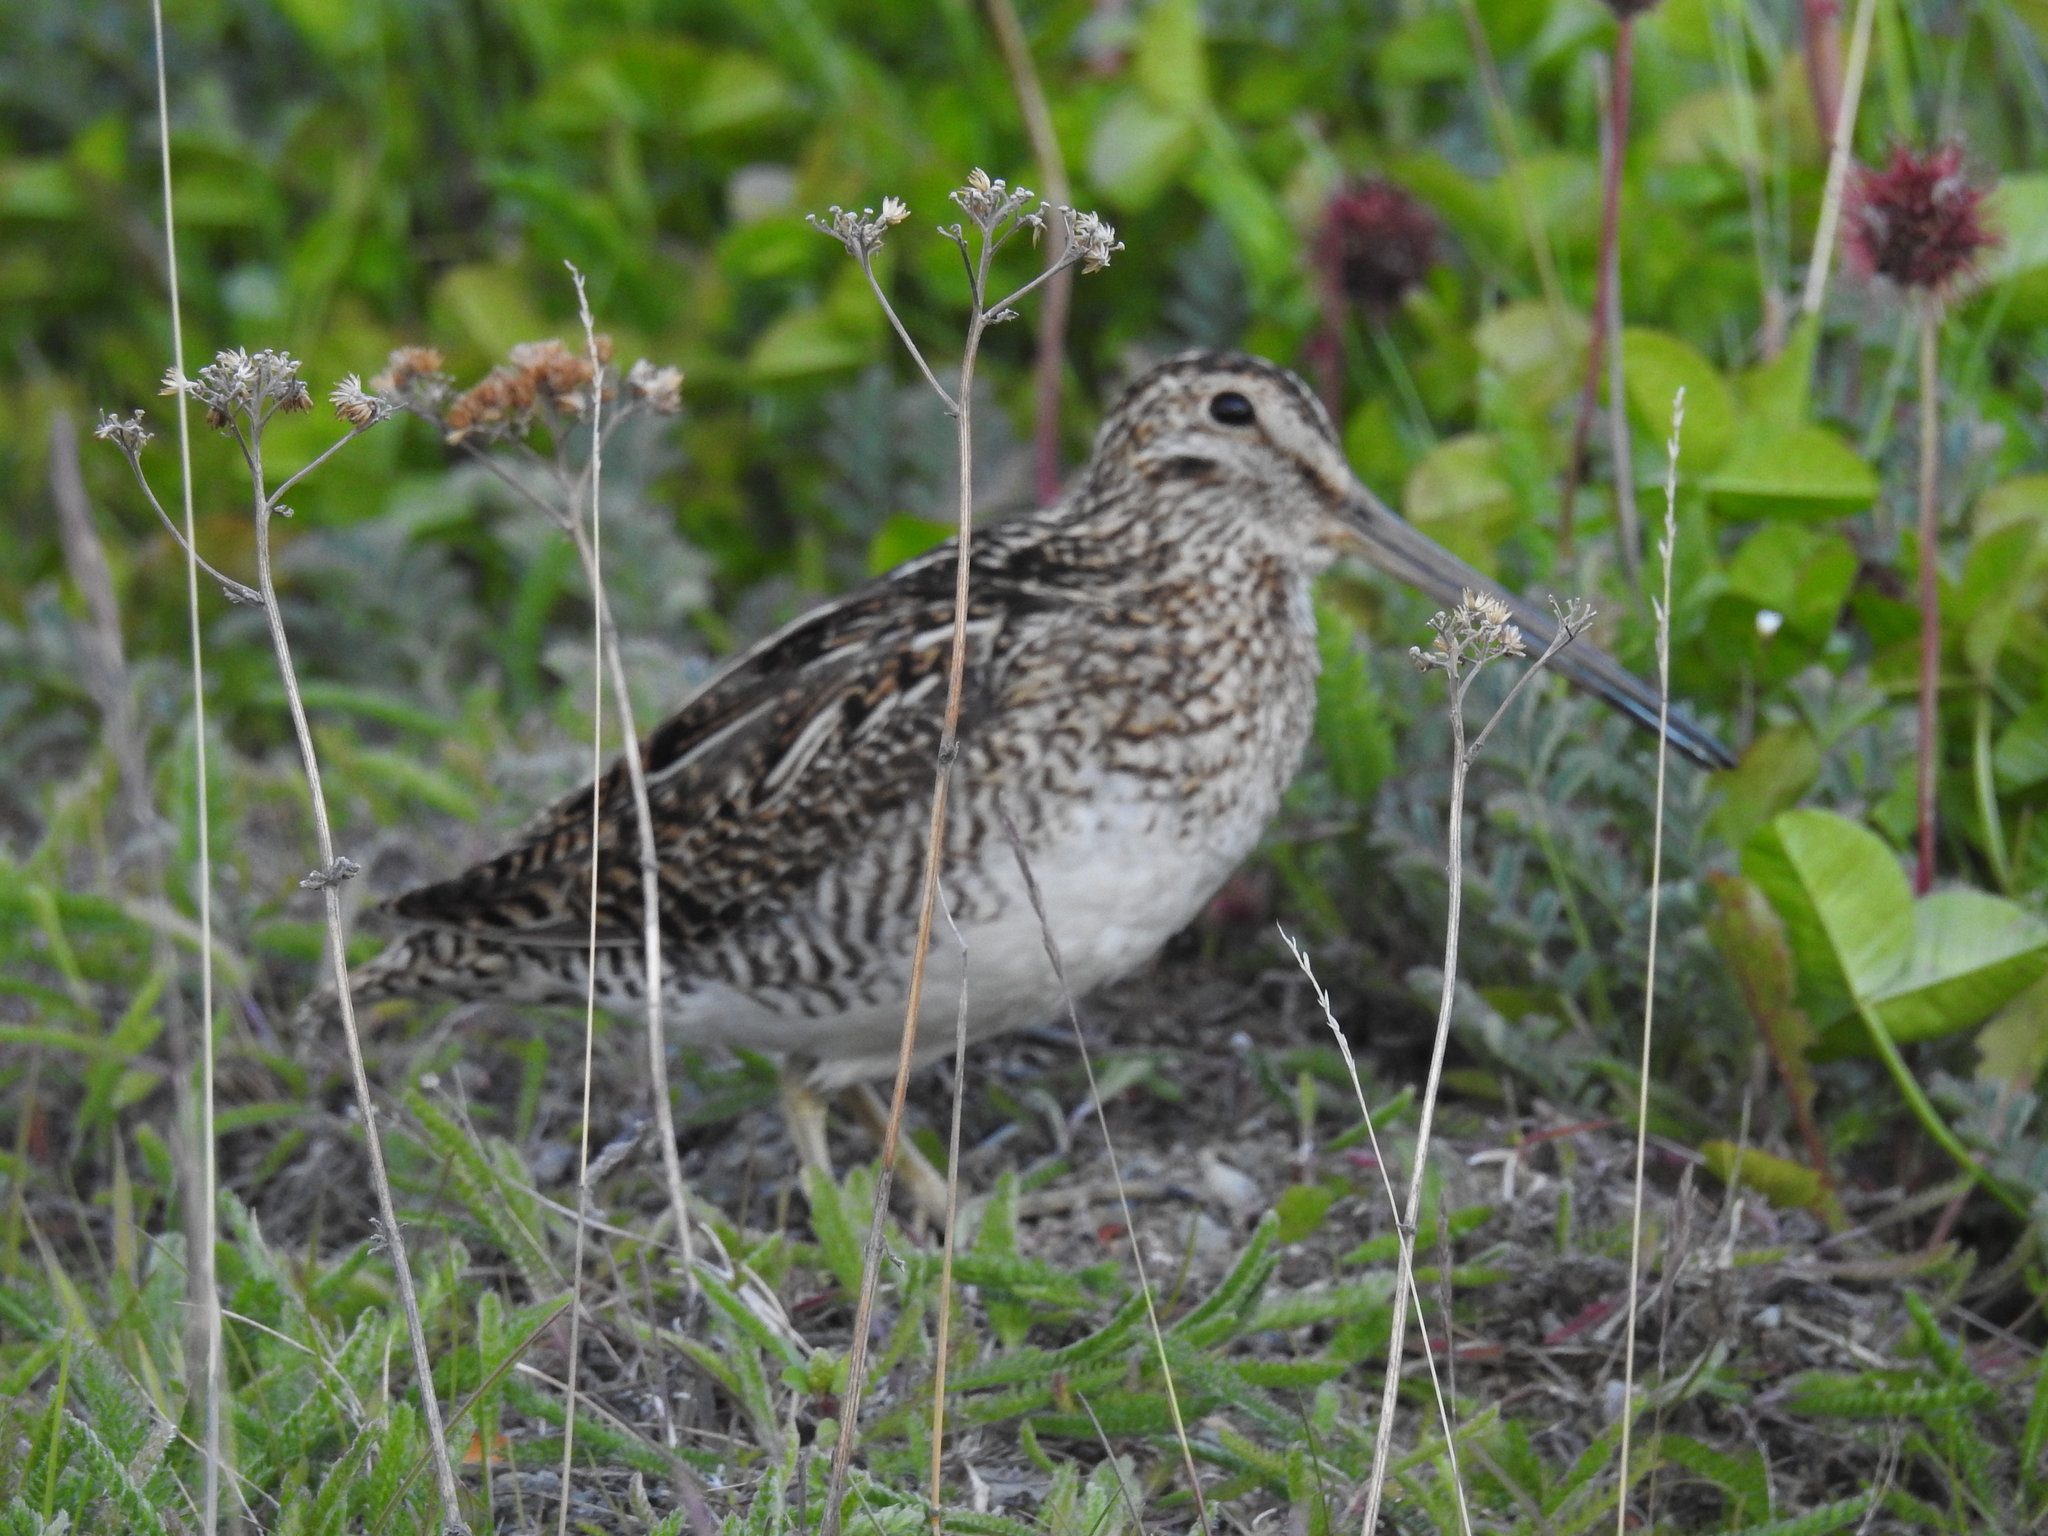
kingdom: Animalia
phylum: Chordata
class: Aves
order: Charadriiformes
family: Scolopacidae
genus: Gallinago
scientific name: Gallinago magellanica
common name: Magellanic snipe
